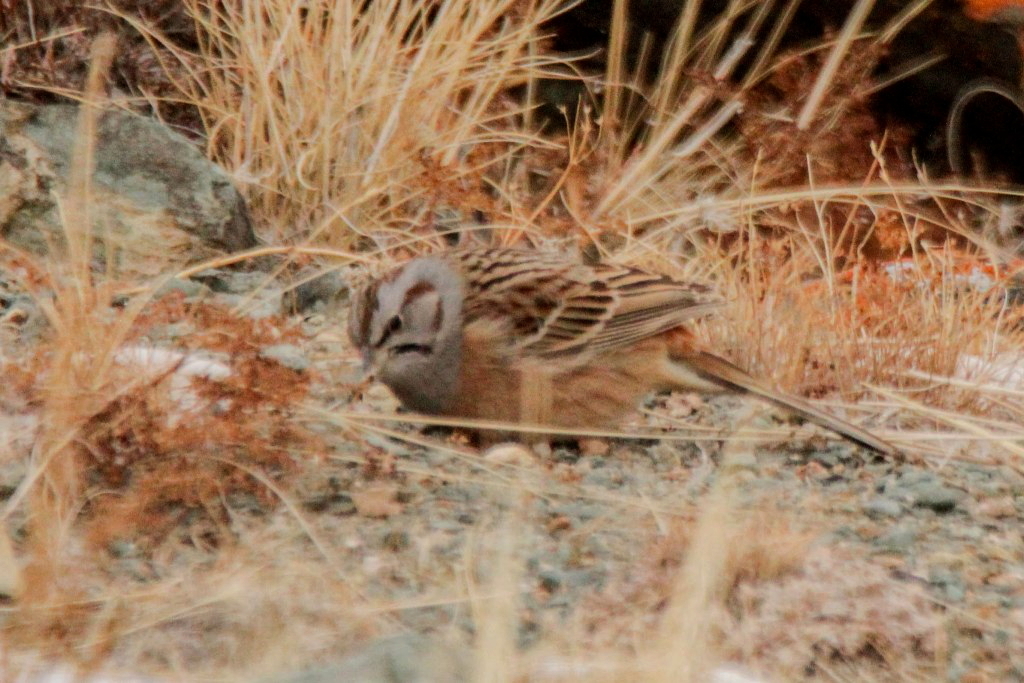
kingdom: Animalia
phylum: Chordata
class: Aves
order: Passeriformes
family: Emberizidae
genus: Emberiza
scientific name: Emberiza godlewskii
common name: Godlewski's bunting
